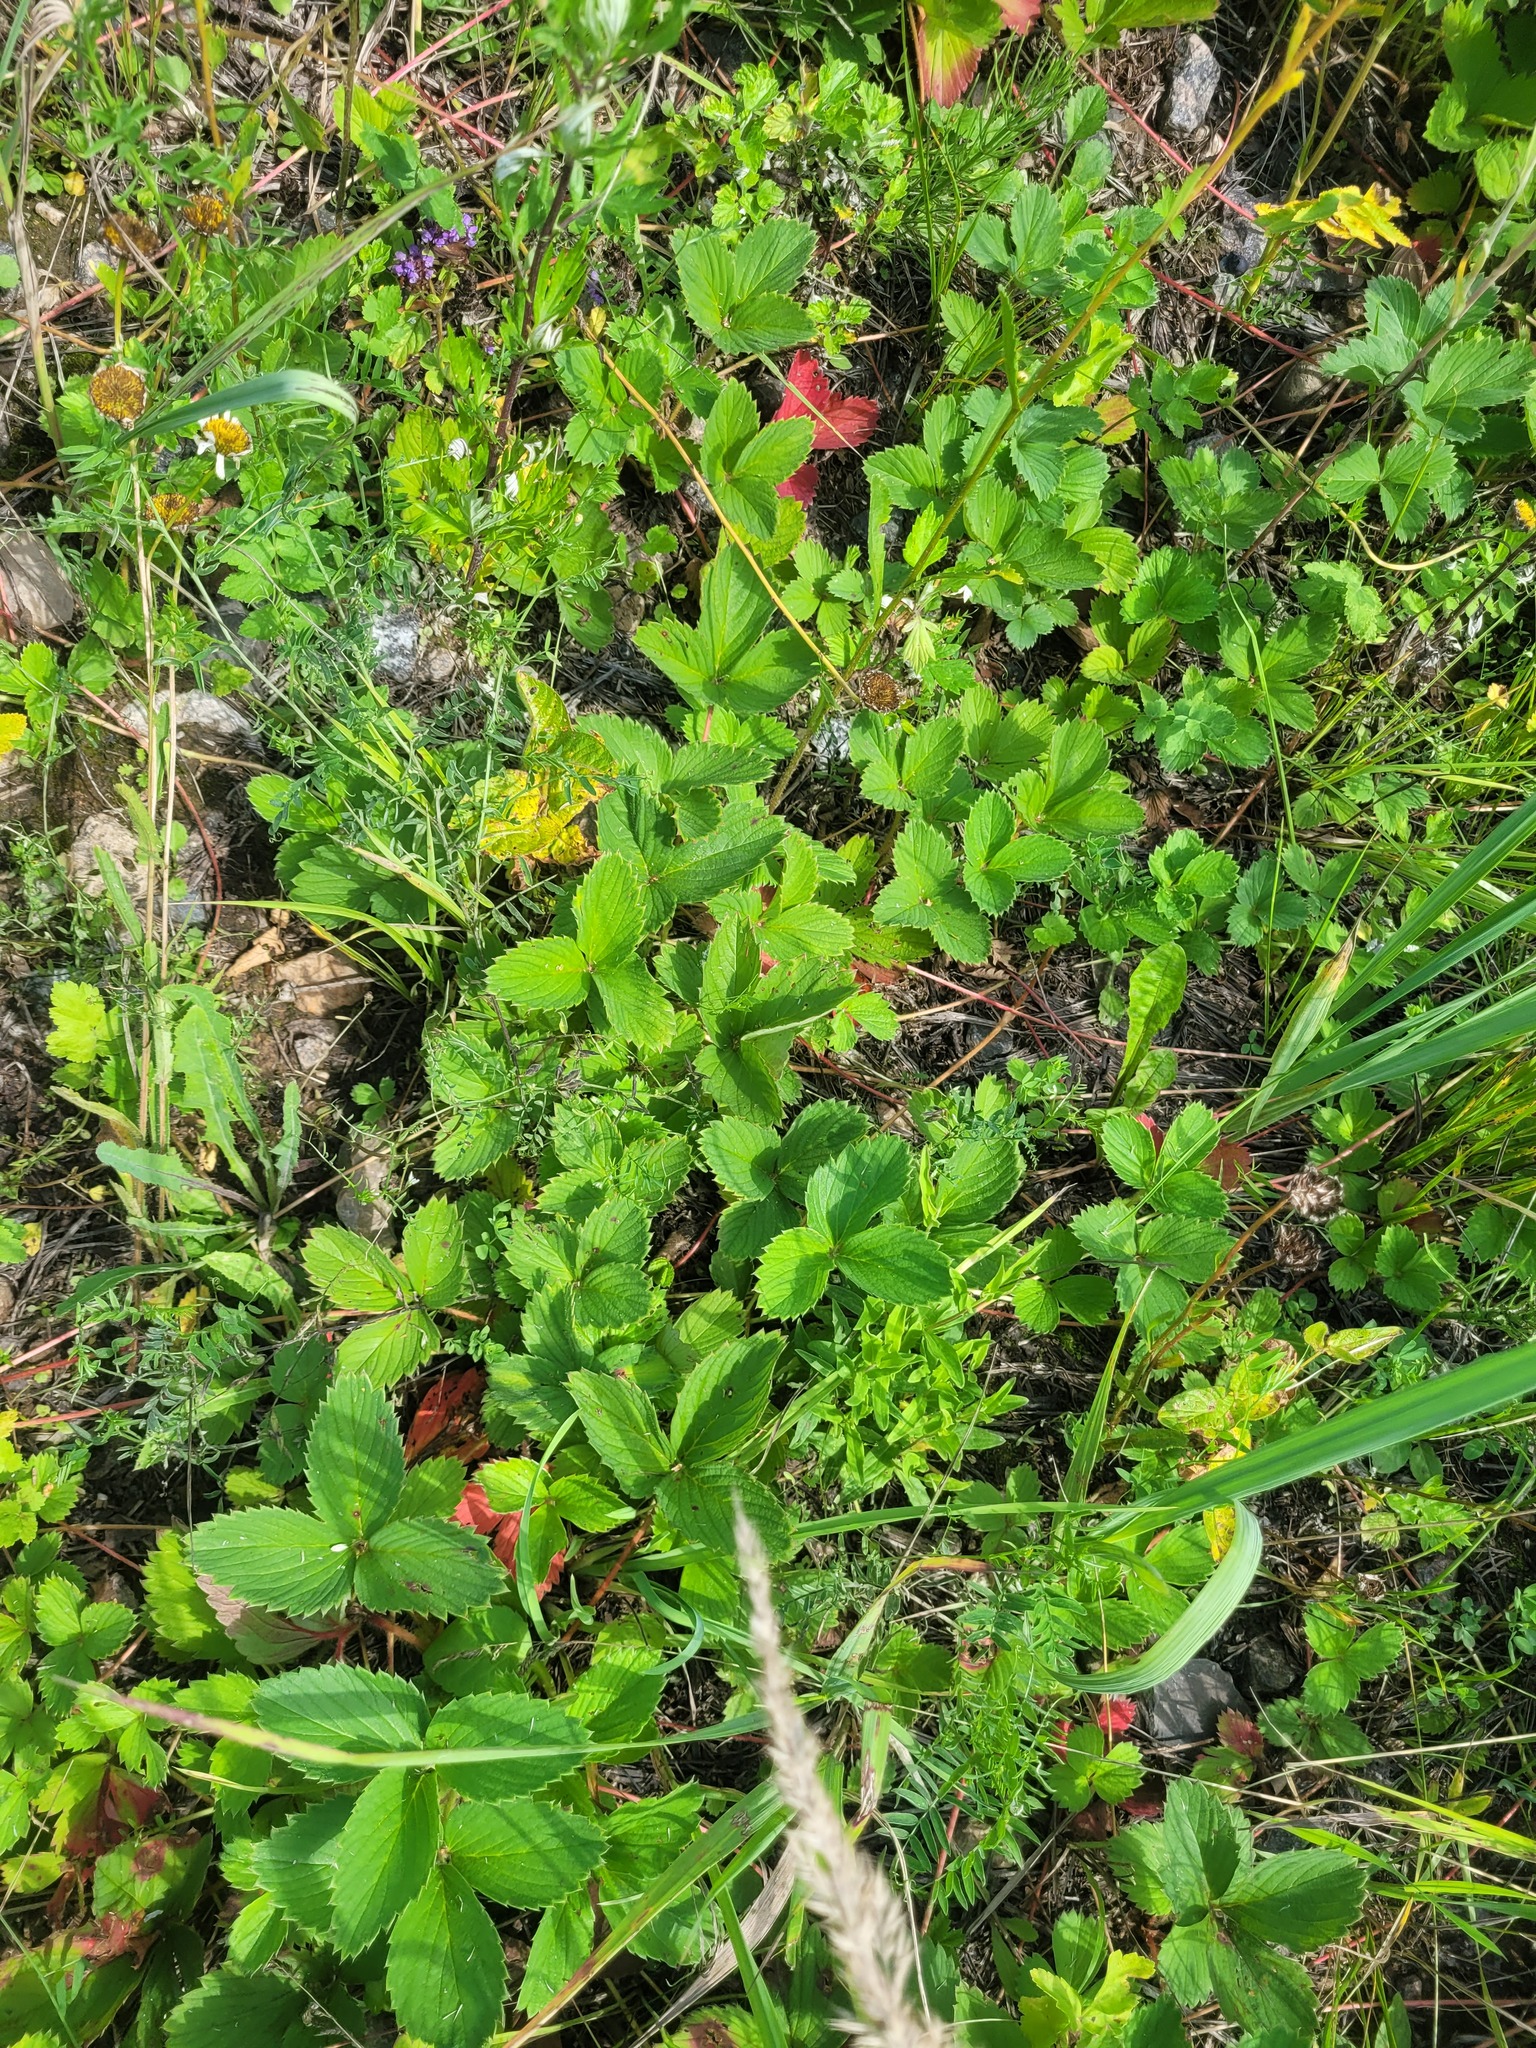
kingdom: Plantae
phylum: Tracheophyta
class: Magnoliopsida
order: Rosales
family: Rosaceae
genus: Fragaria
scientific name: Fragaria ananassa
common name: Garden strawberry
